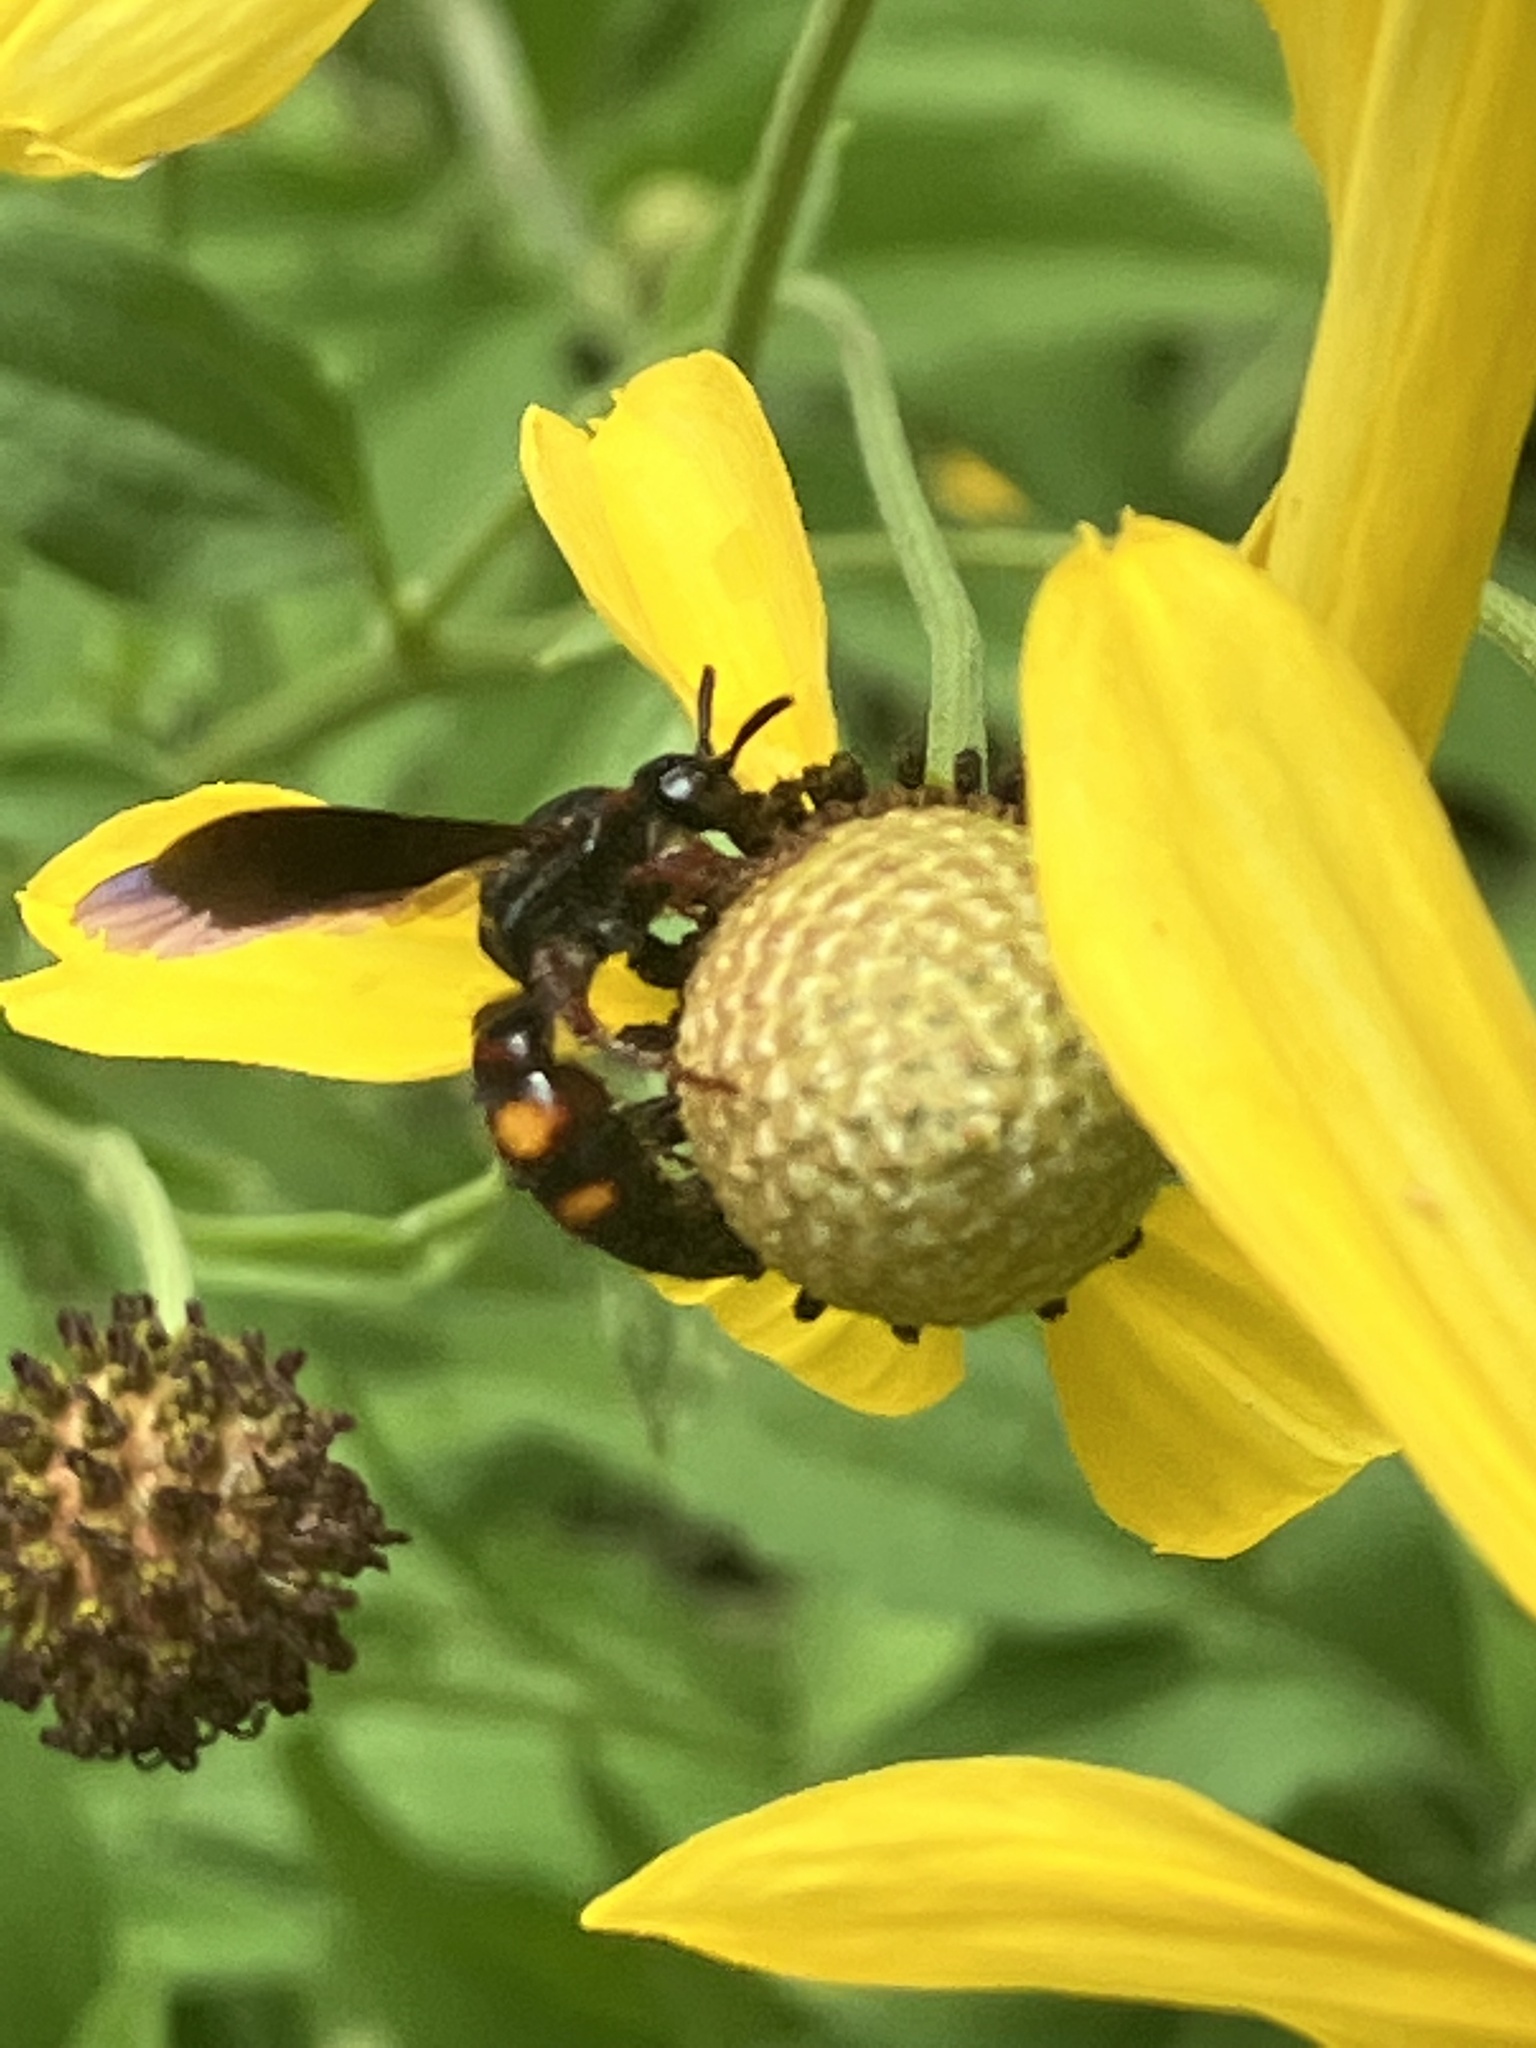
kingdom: Animalia
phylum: Arthropoda
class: Insecta
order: Hymenoptera
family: Scoliidae
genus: Scolia
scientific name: Scolia nobilitata
